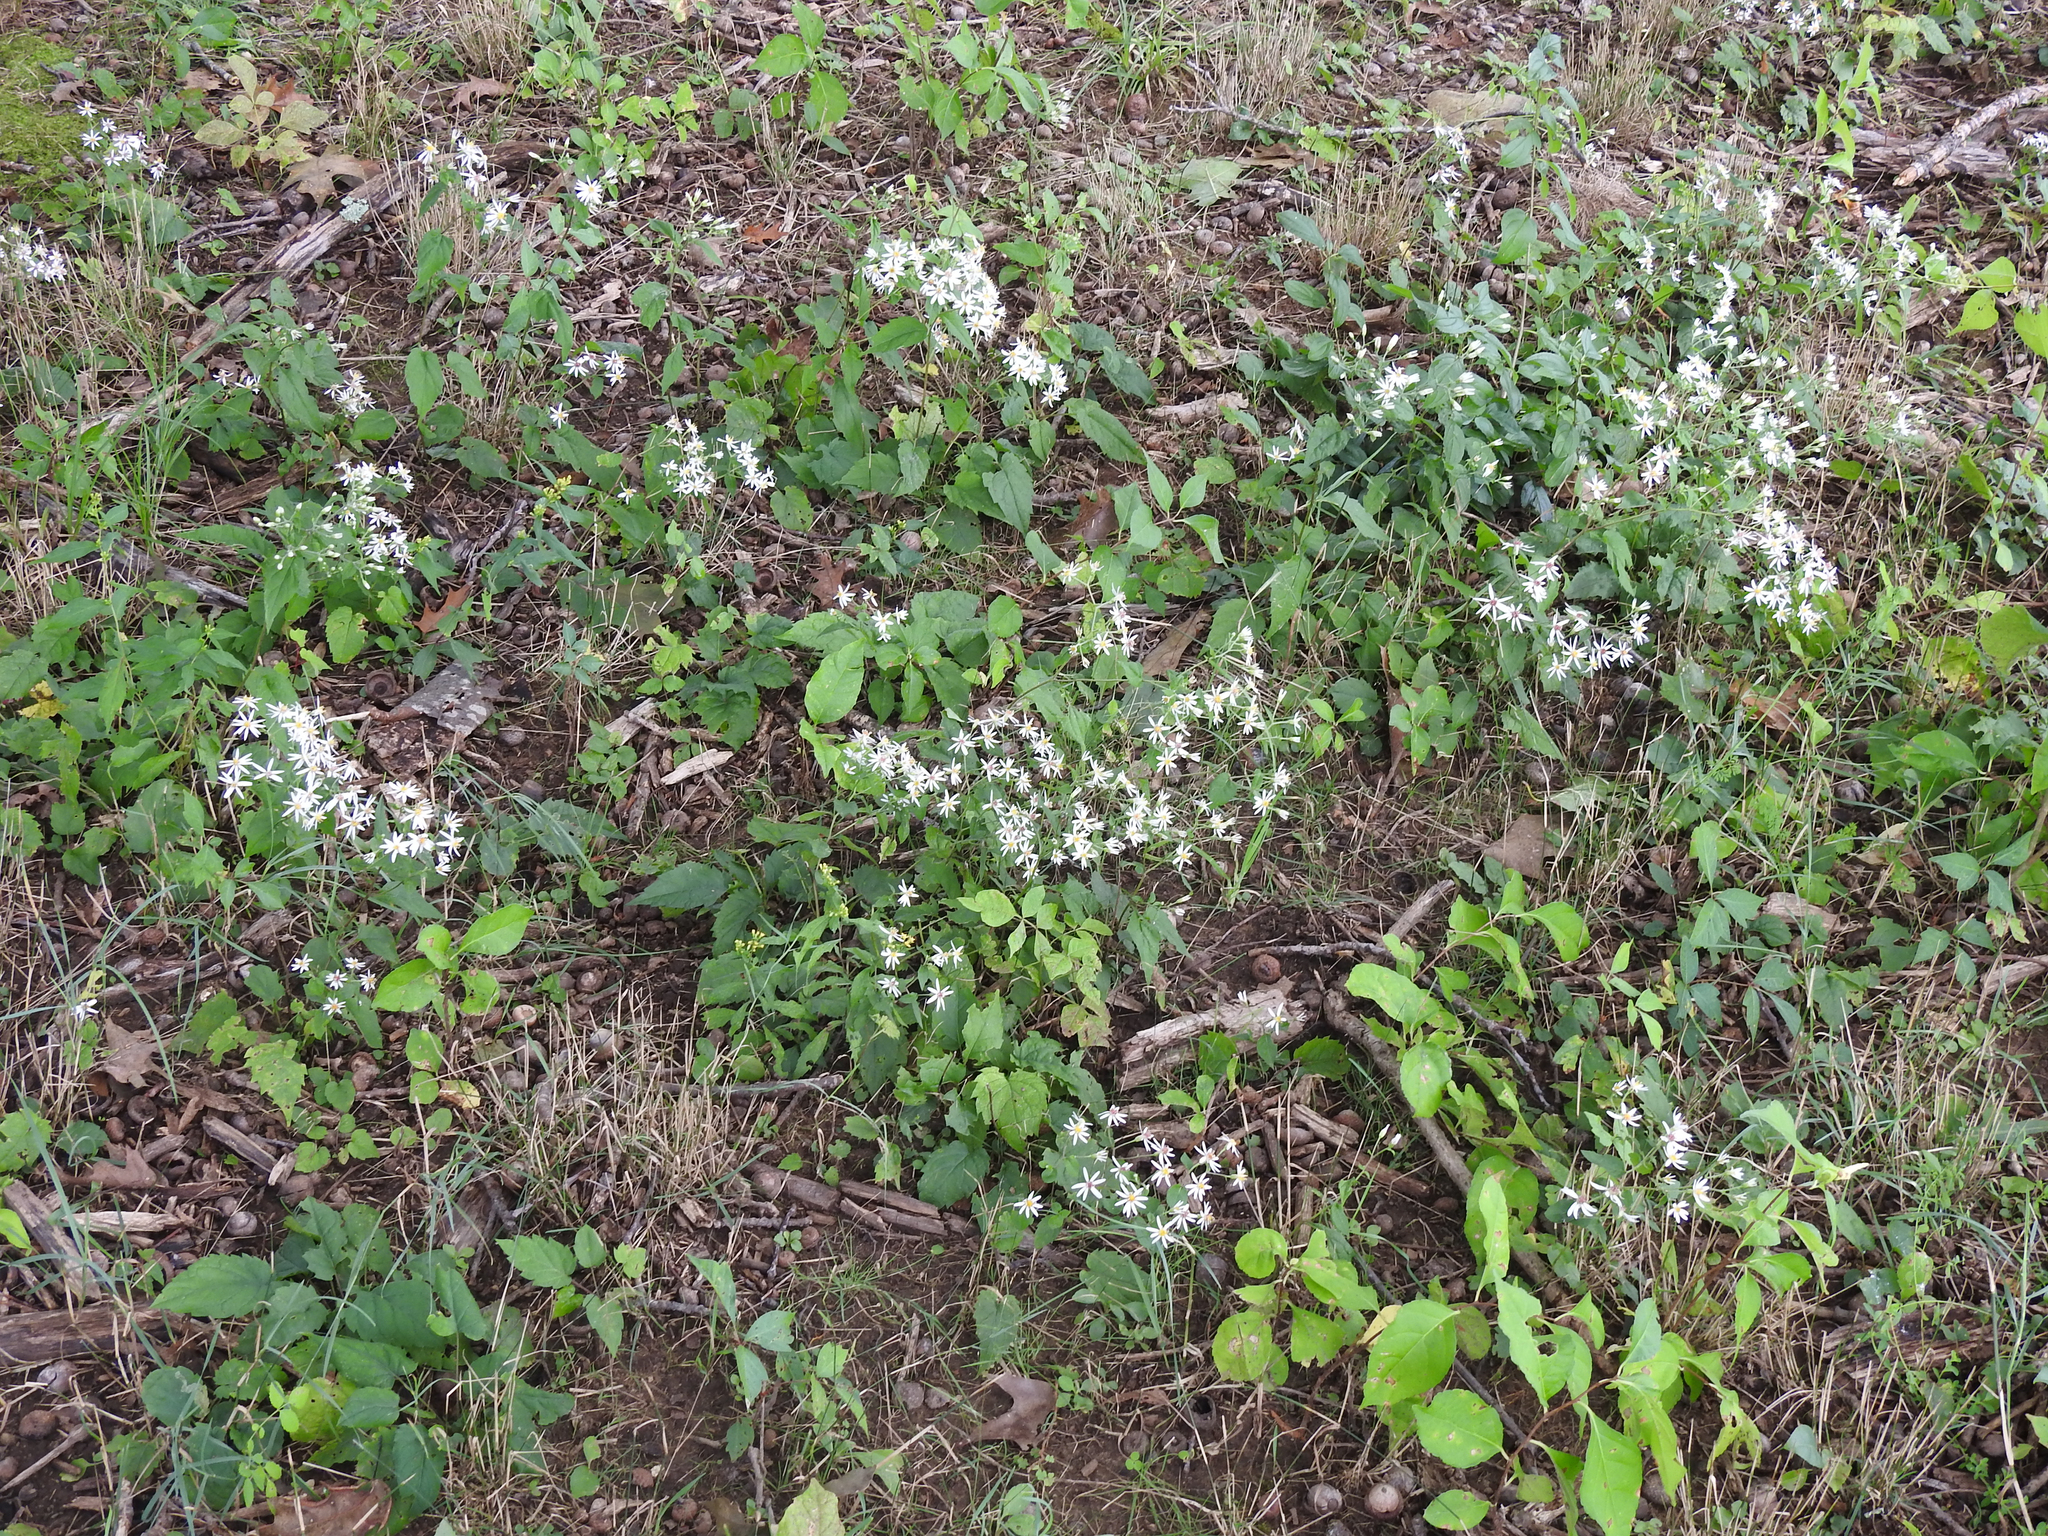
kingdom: Plantae
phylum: Tracheophyta
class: Magnoliopsida
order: Asterales
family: Asteraceae
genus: Eurybia
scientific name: Eurybia divaricata
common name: White wood aster
